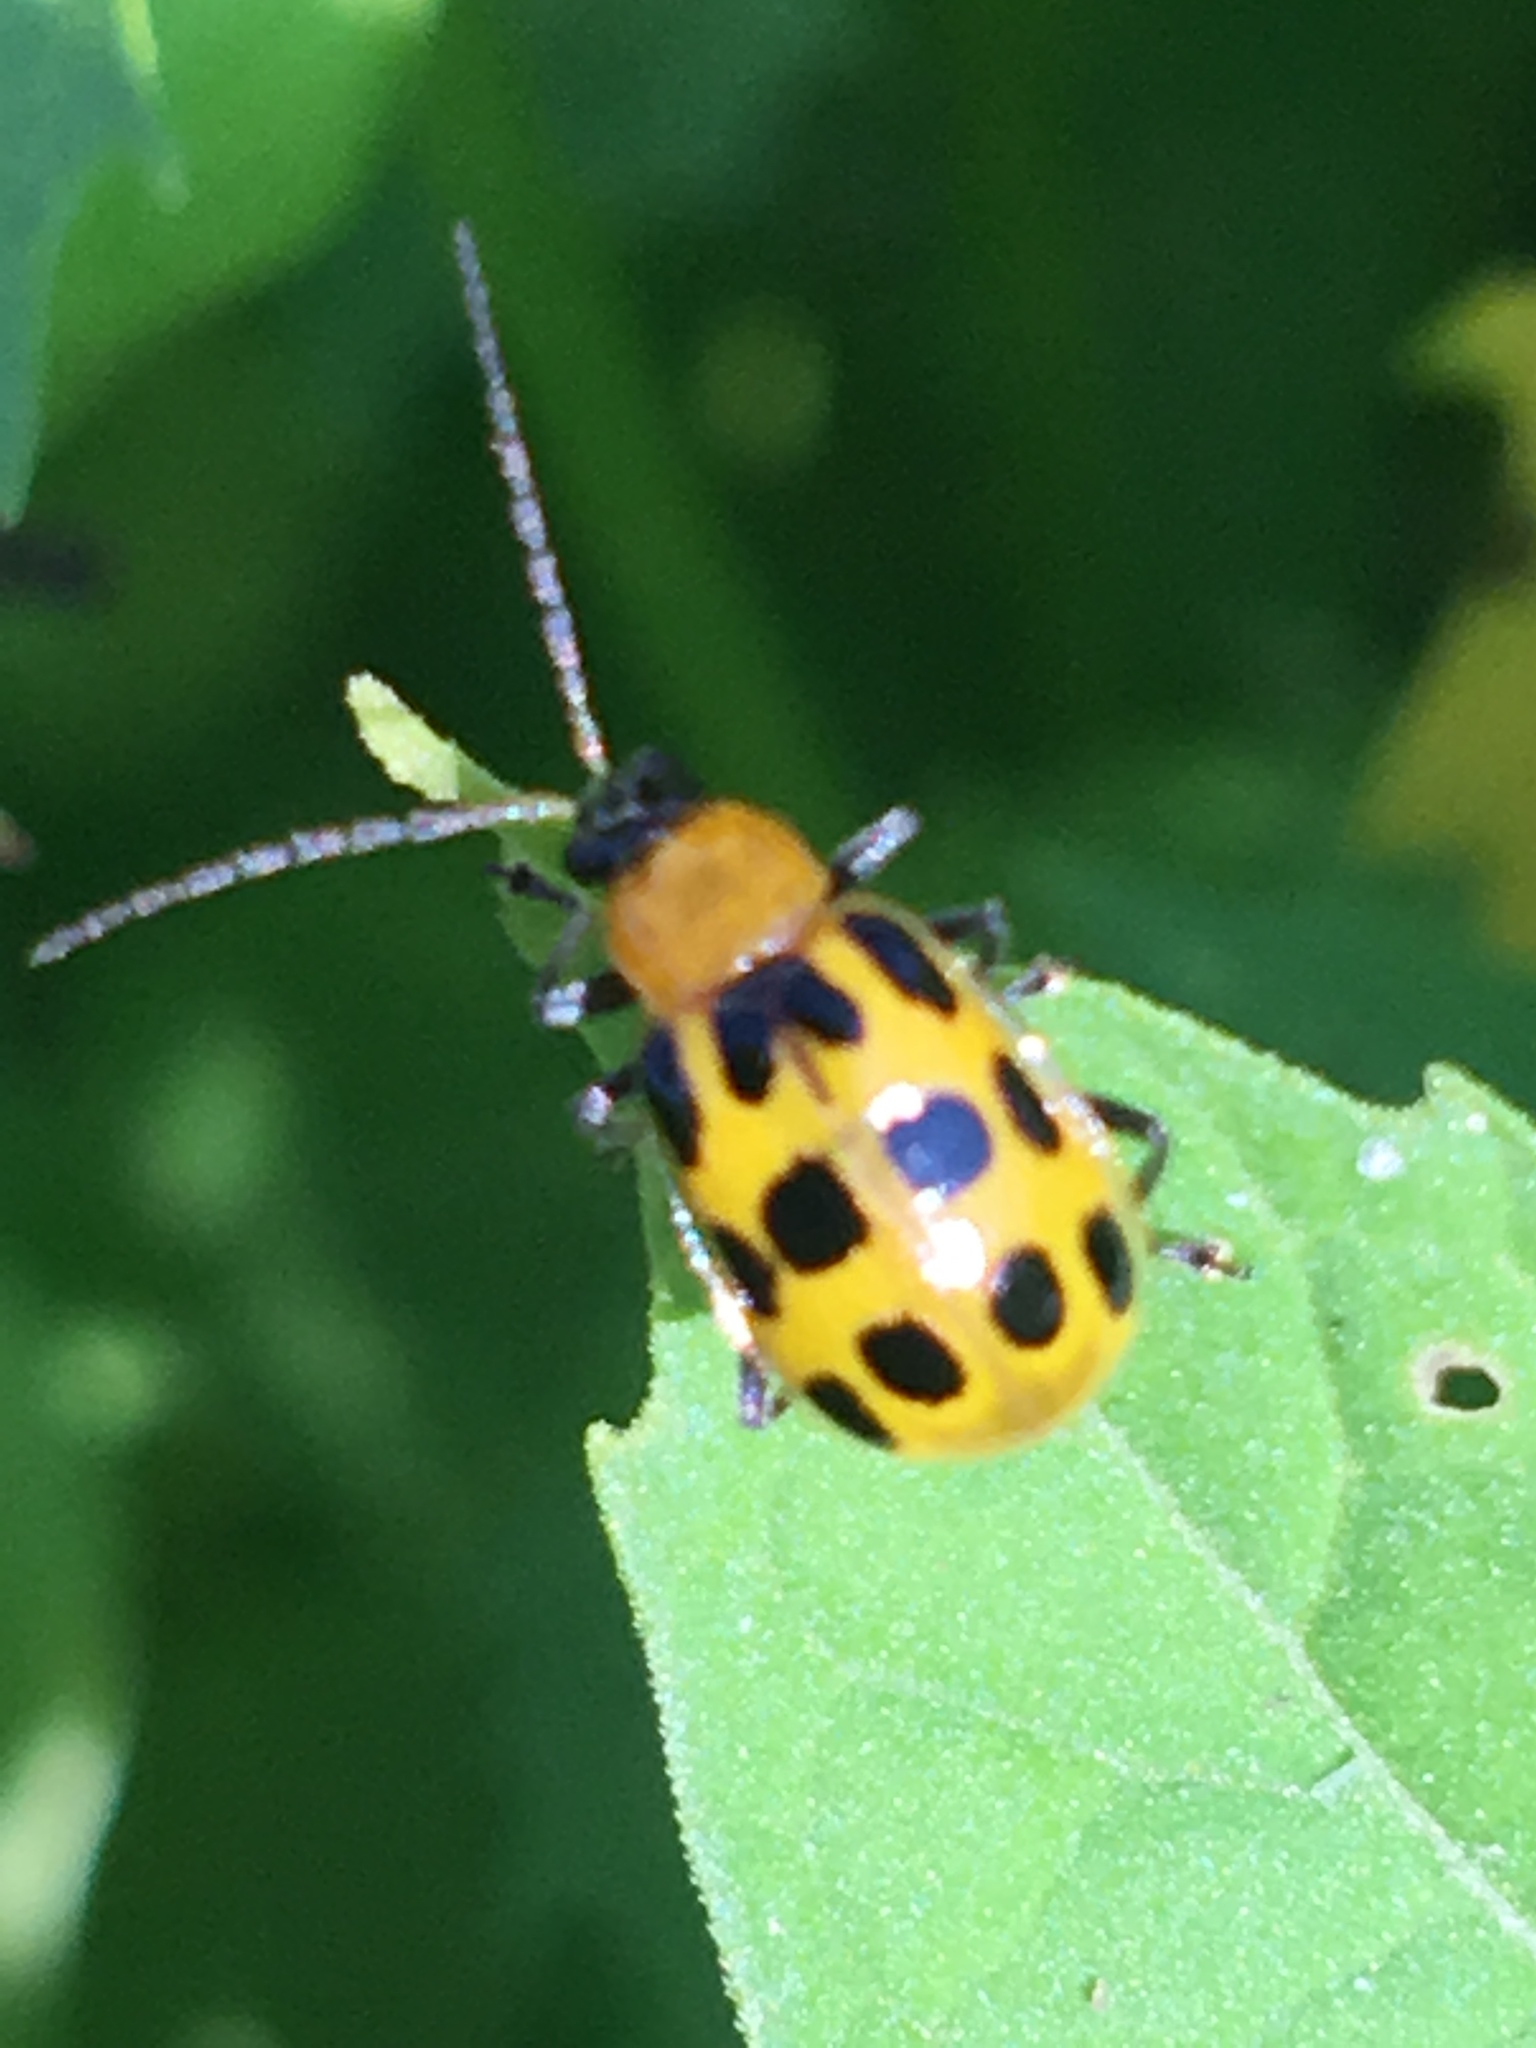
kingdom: Animalia
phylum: Arthropoda
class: Insecta
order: Coleoptera
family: Chrysomelidae
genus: Diabrotica
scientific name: Diabrotica undecimpunctata
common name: Spotted cucumber beetle
